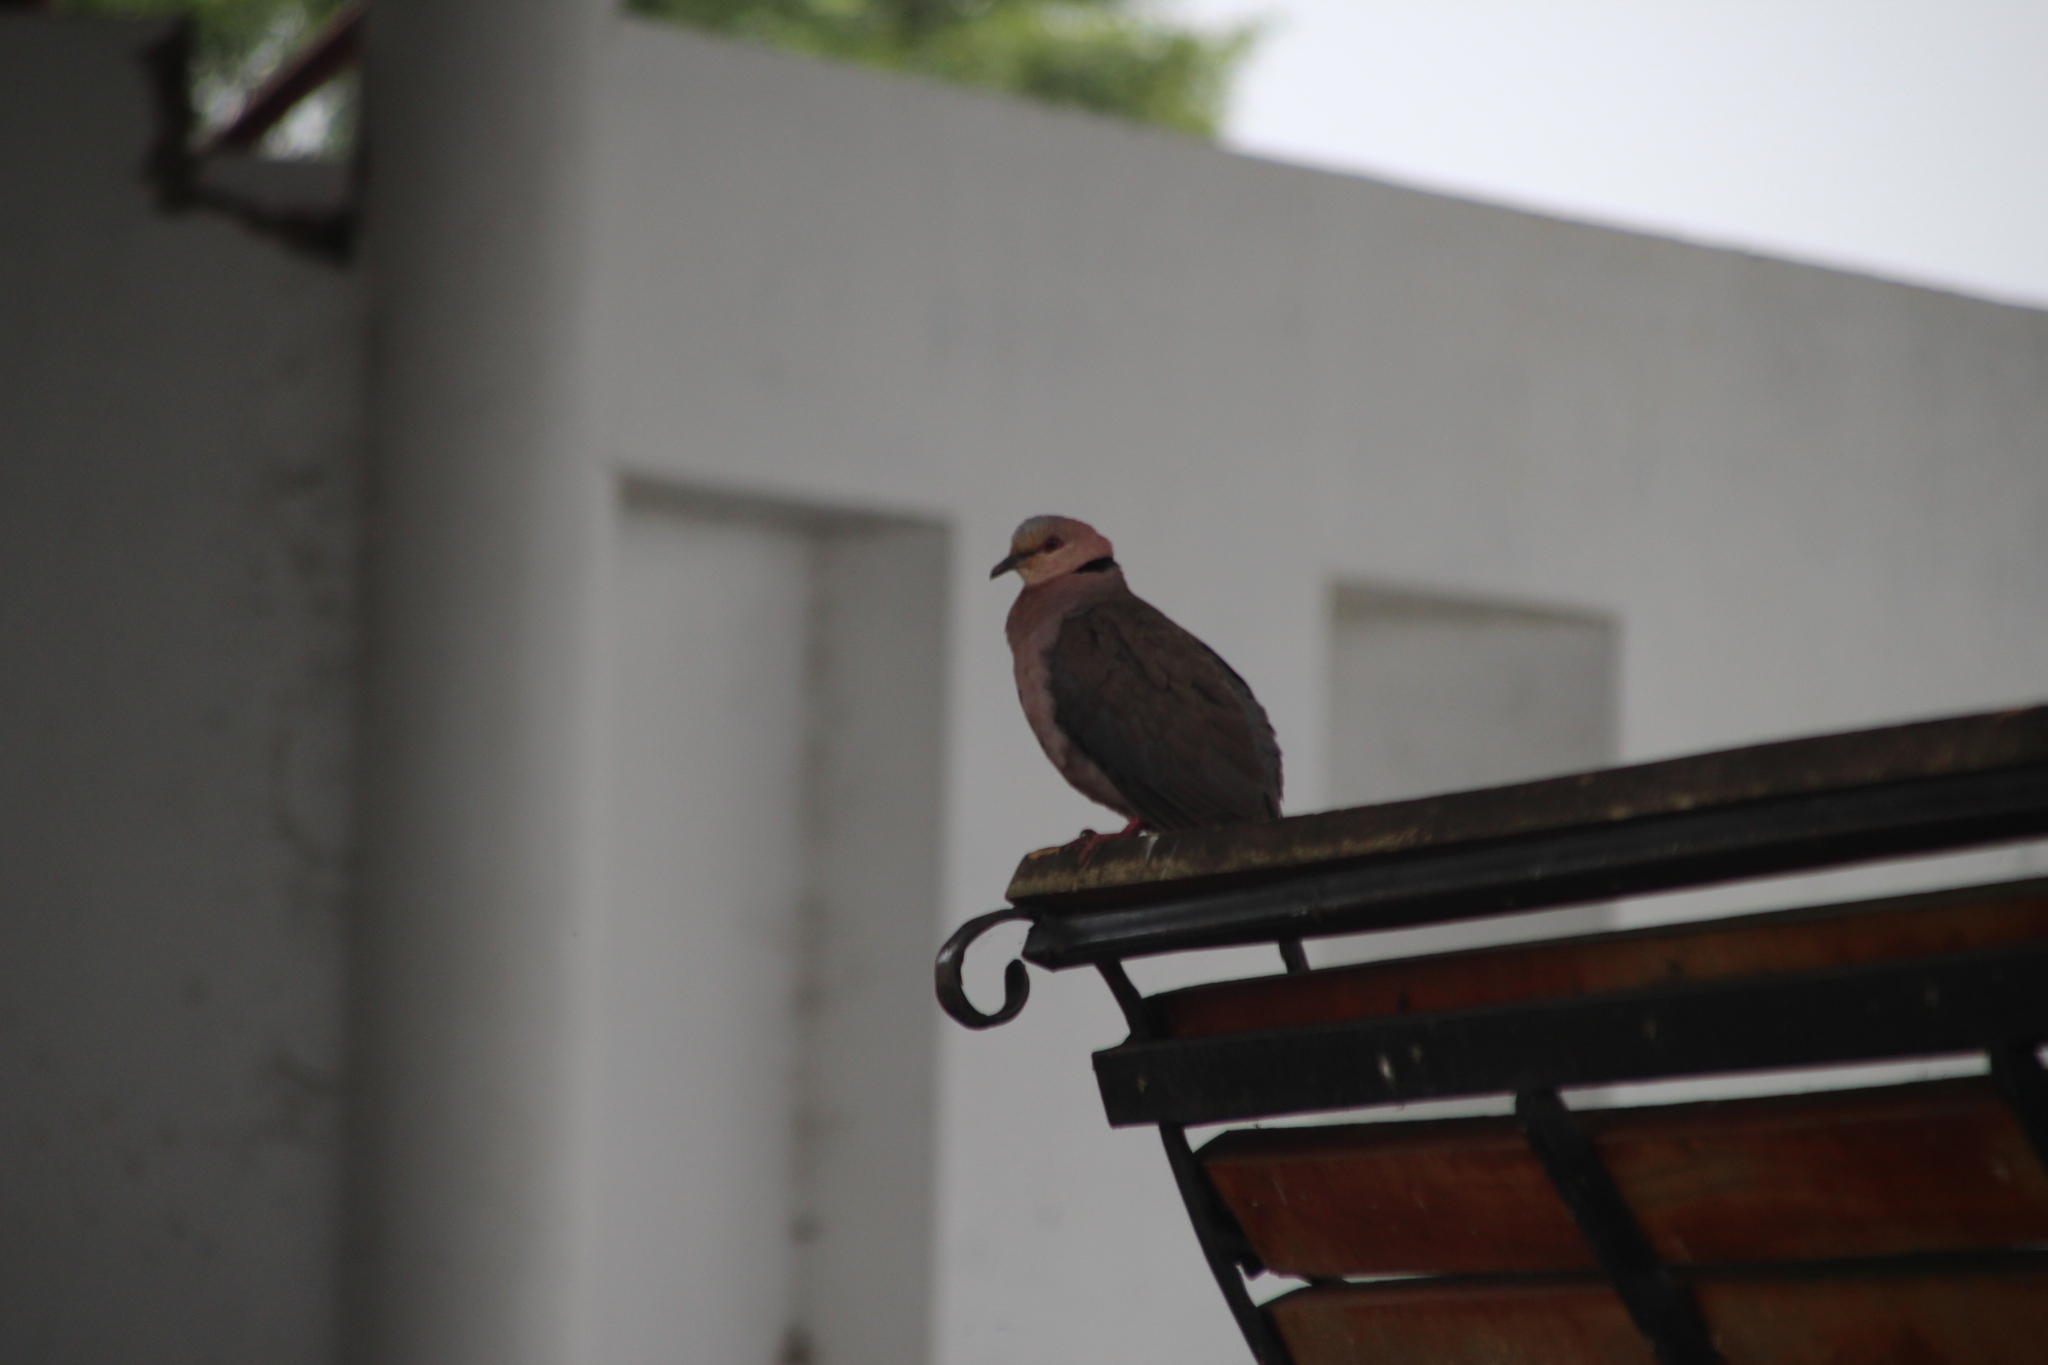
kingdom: Animalia
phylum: Chordata
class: Aves
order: Columbiformes
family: Columbidae
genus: Streptopelia
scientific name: Streptopelia semitorquata
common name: Red-eyed dove
